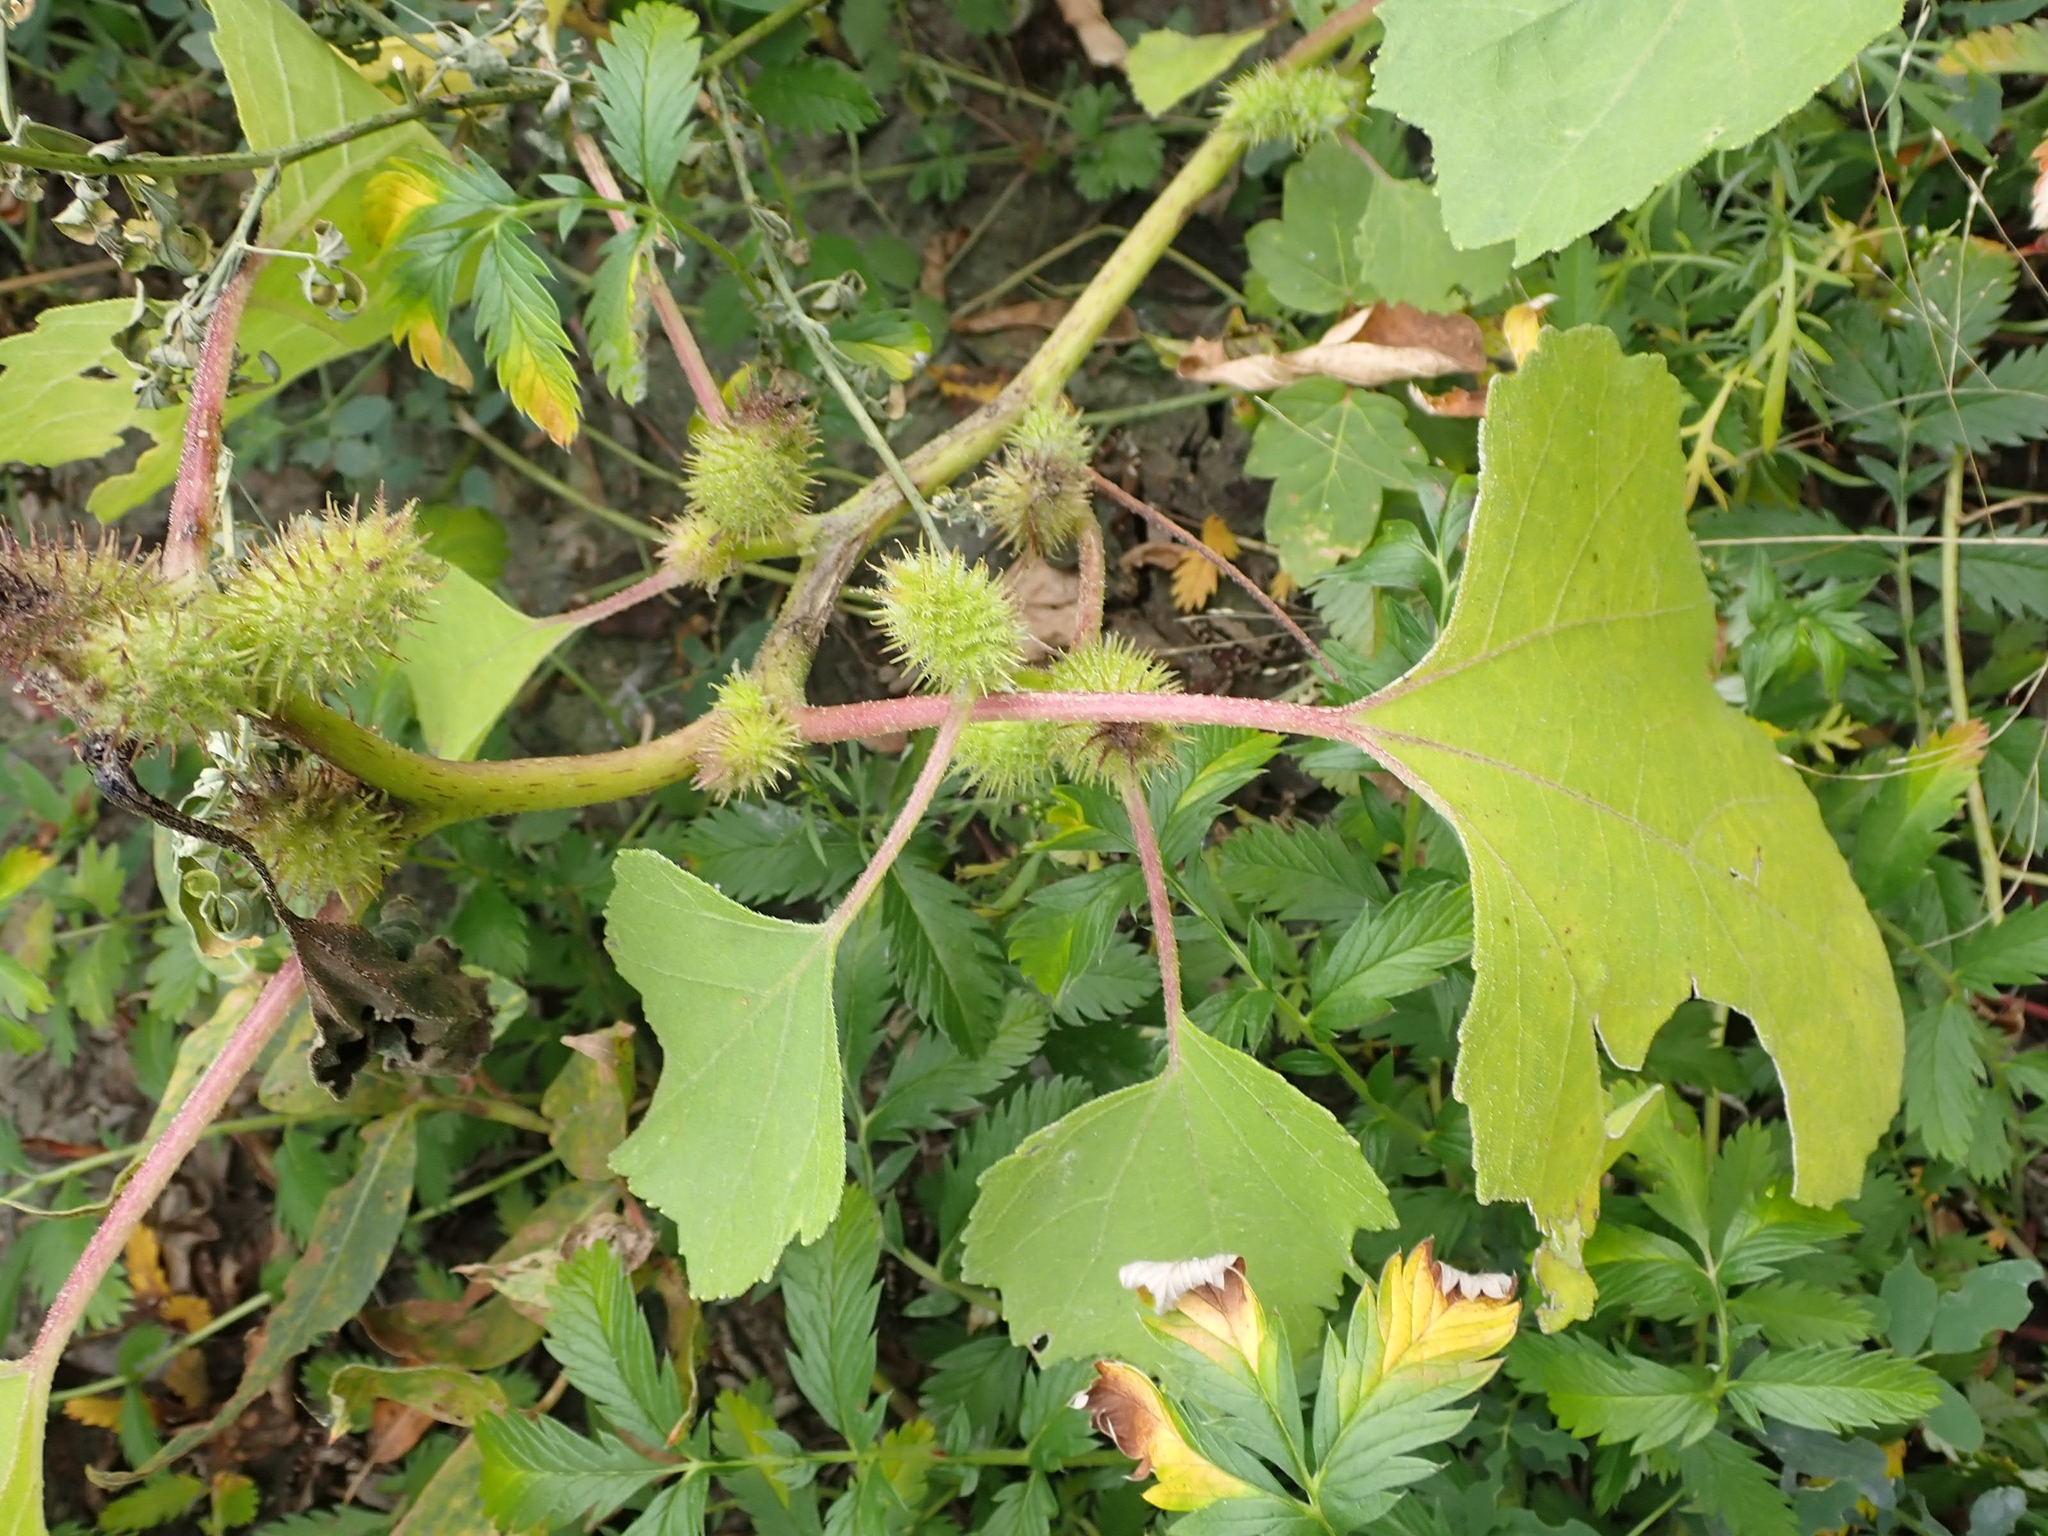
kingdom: Plantae
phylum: Tracheophyta
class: Magnoliopsida
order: Asterales
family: Asteraceae
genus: Xanthium
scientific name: Xanthium strumarium
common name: Rough cocklebur
